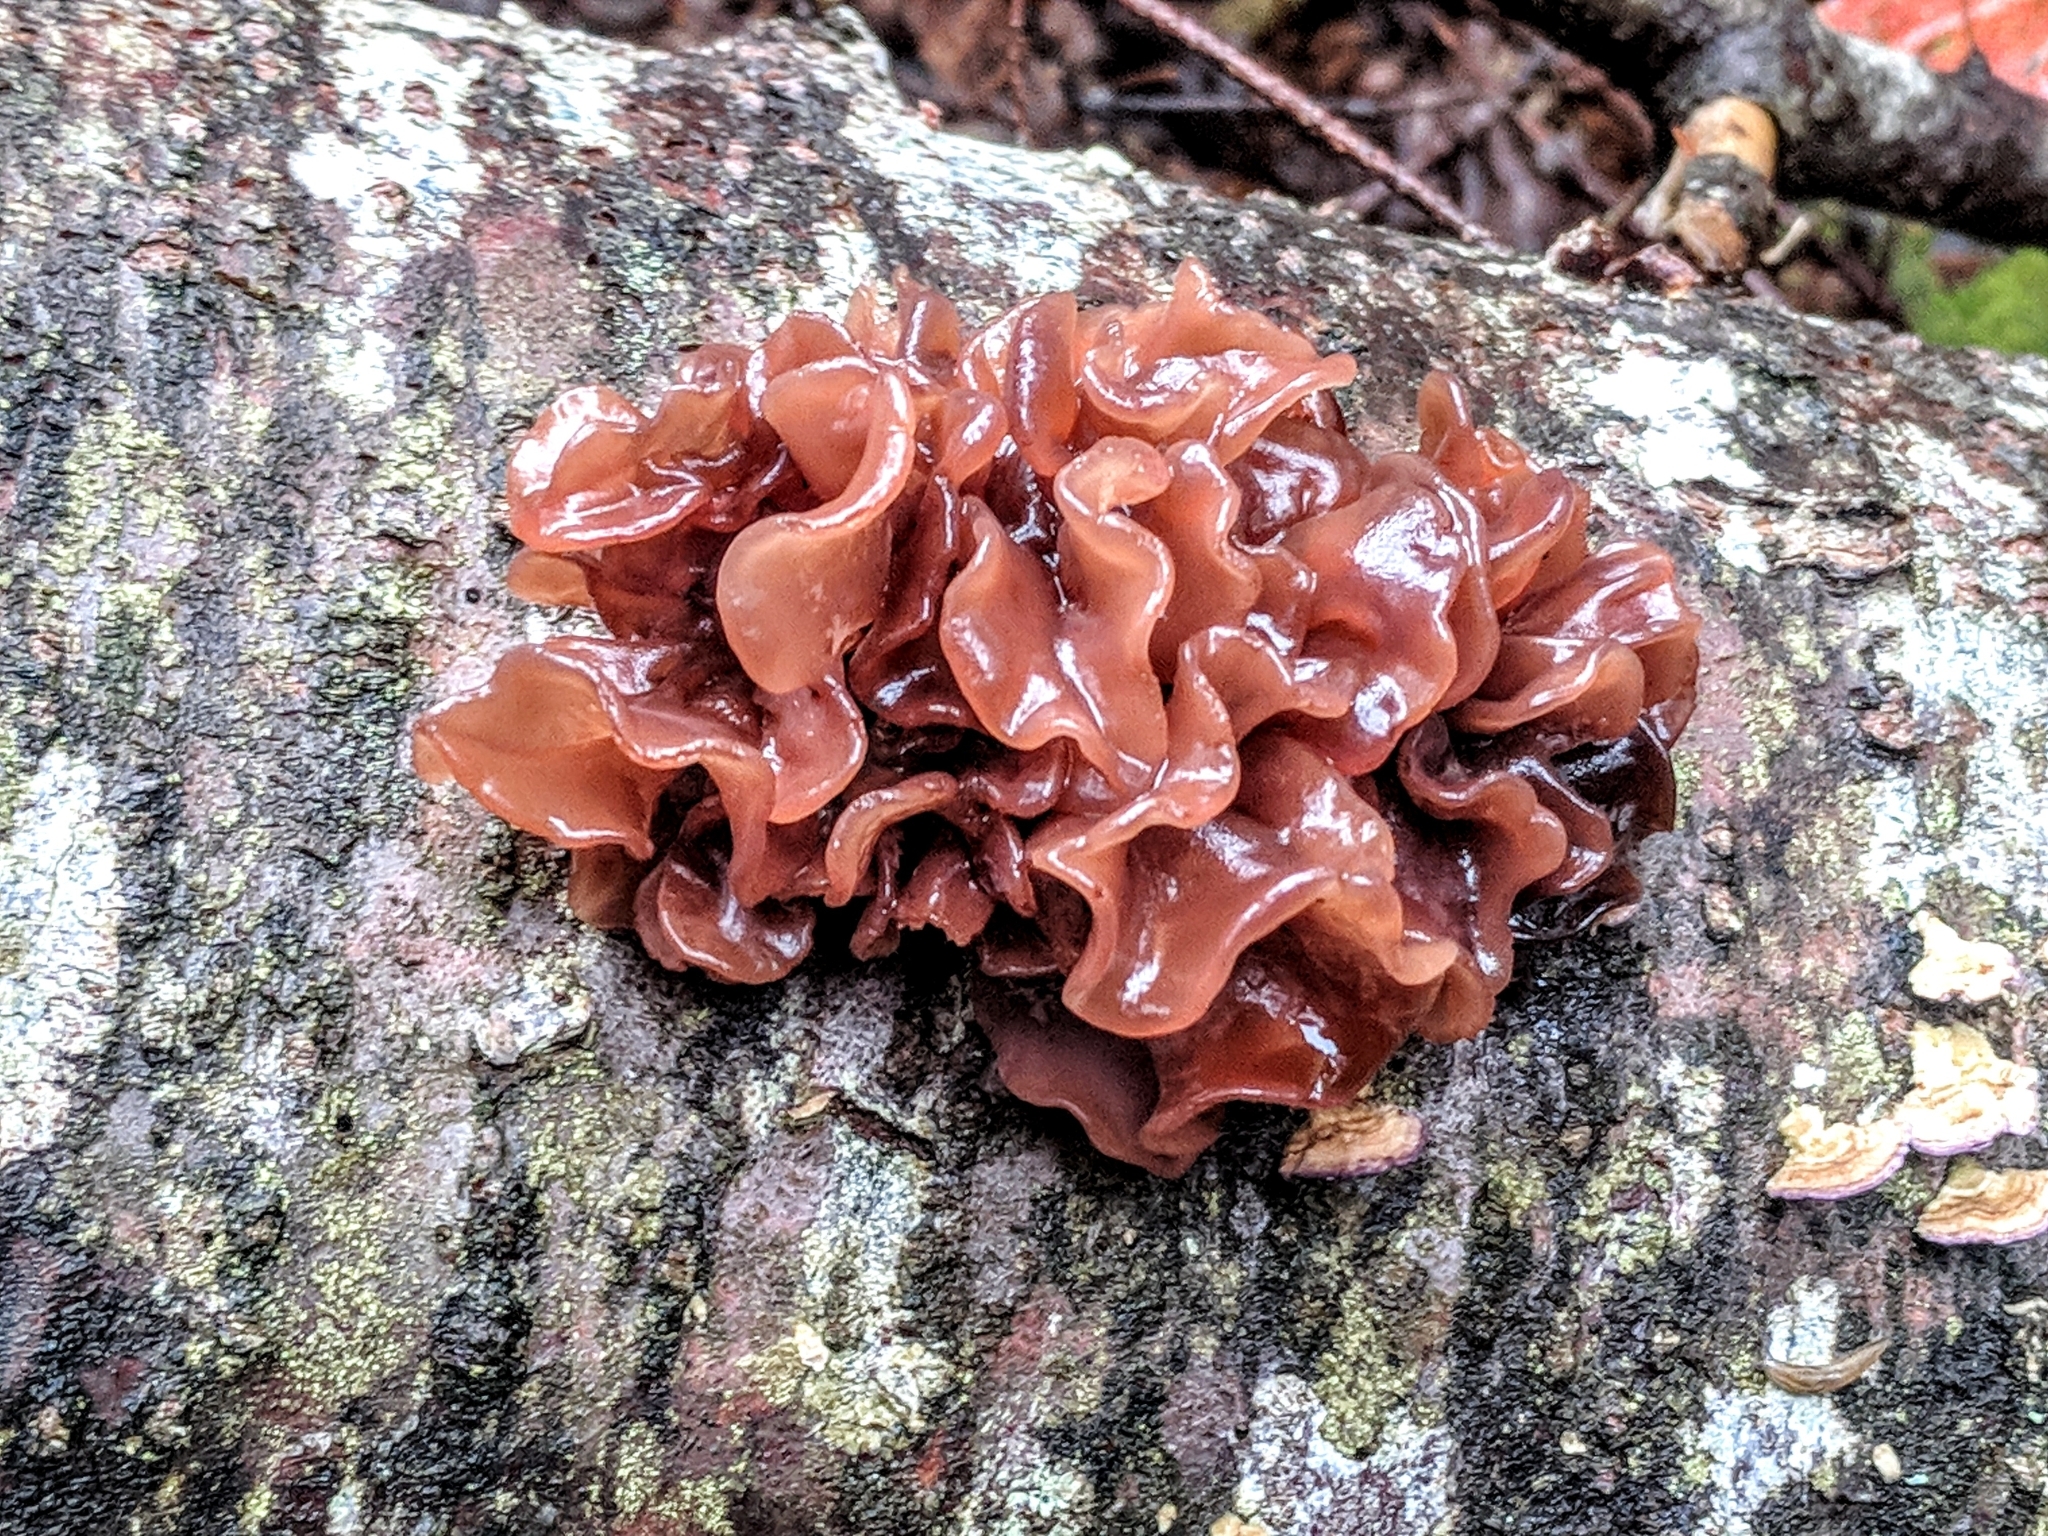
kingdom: Fungi
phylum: Basidiomycota
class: Tremellomycetes
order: Tremellales
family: Tremellaceae
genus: Phaeotremella
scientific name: Phaeotremella foliacea
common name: Leafy brain
